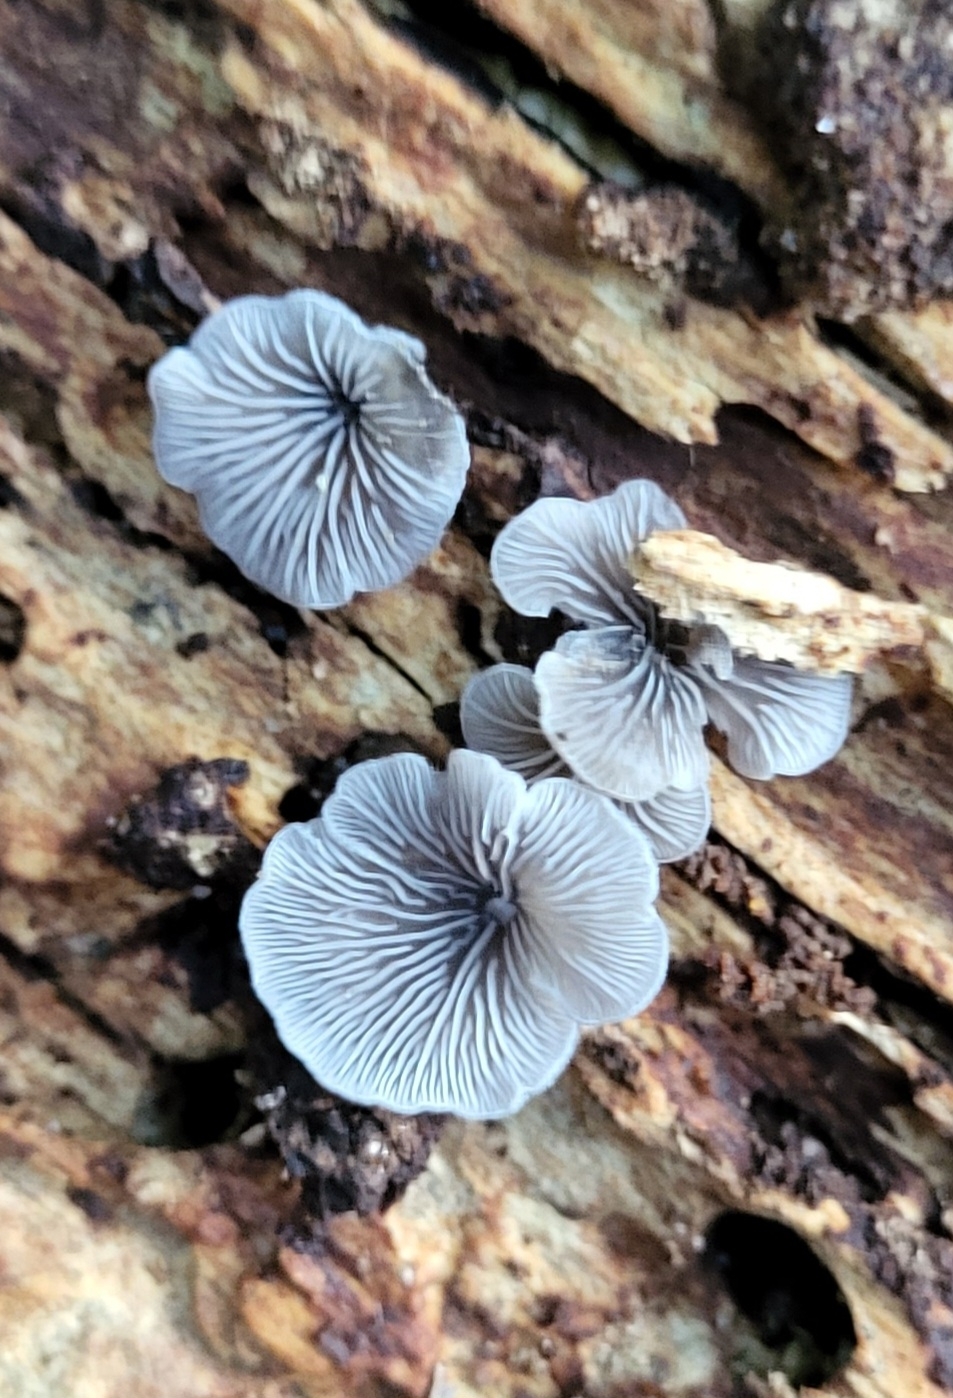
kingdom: Fungi
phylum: Basidiomycota
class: Agaricomycetes
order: Agaricales
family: Pleurotaceae
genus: Resupinatus
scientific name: Resupinatus applicatus
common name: Smoked oysterling
